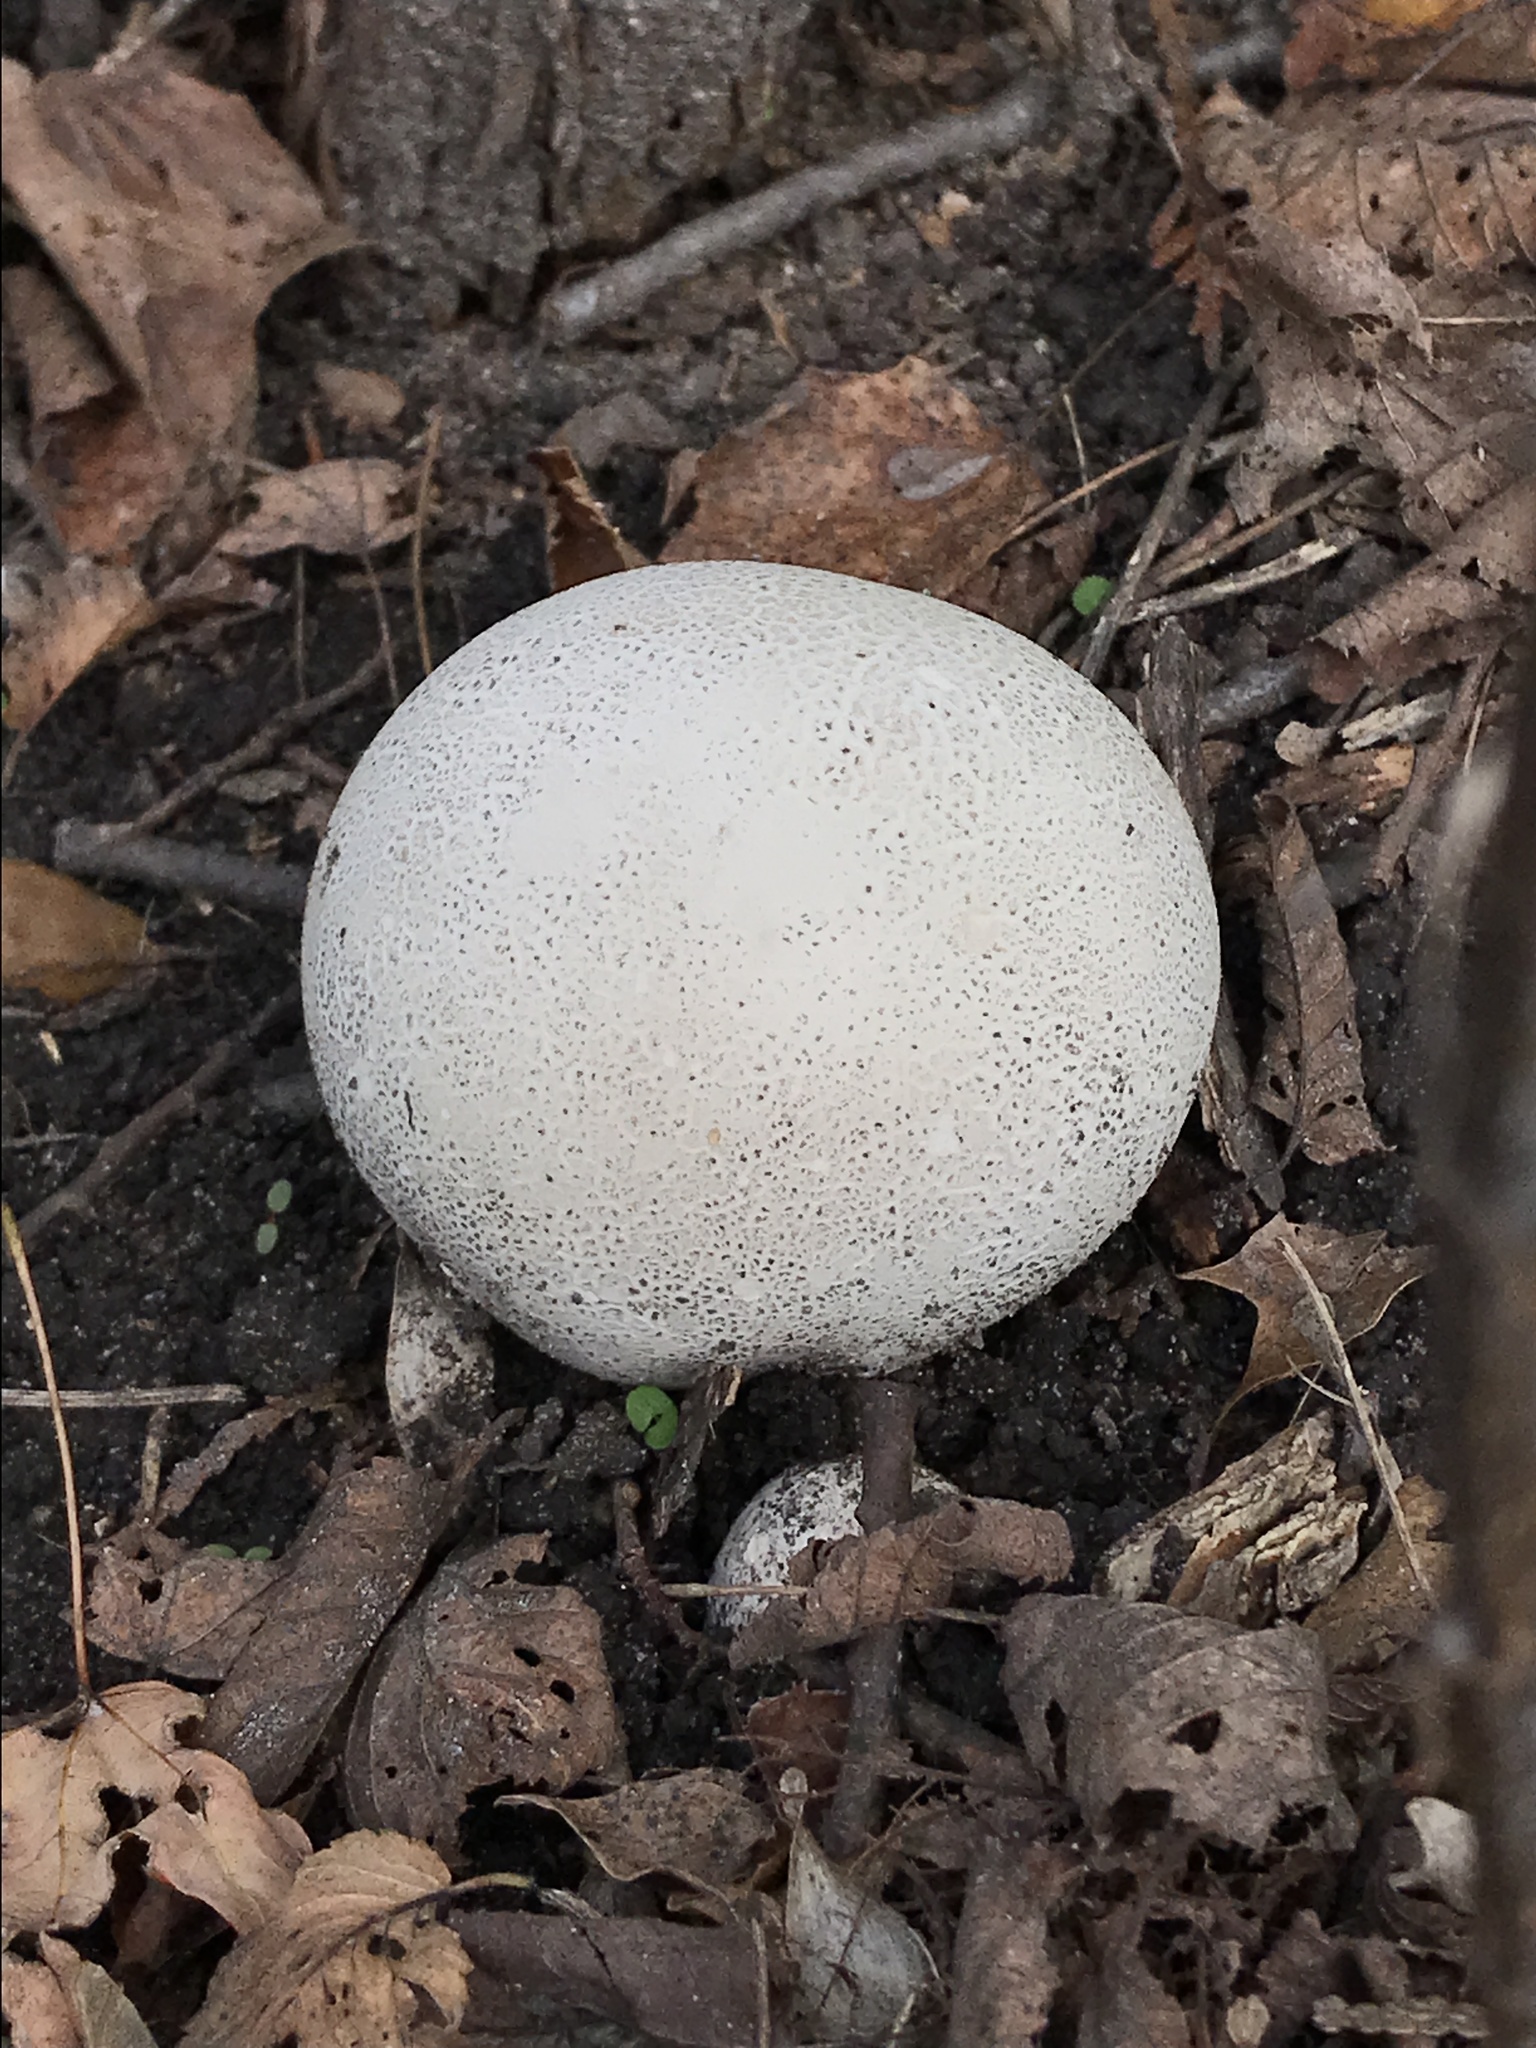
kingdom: Fungi
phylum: Basidiomycota
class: Agaricomycetes
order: Agaricales
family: Lycoperdaceae
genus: Lycoperdon
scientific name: Lycoperdon perlatum
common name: Common puffball
